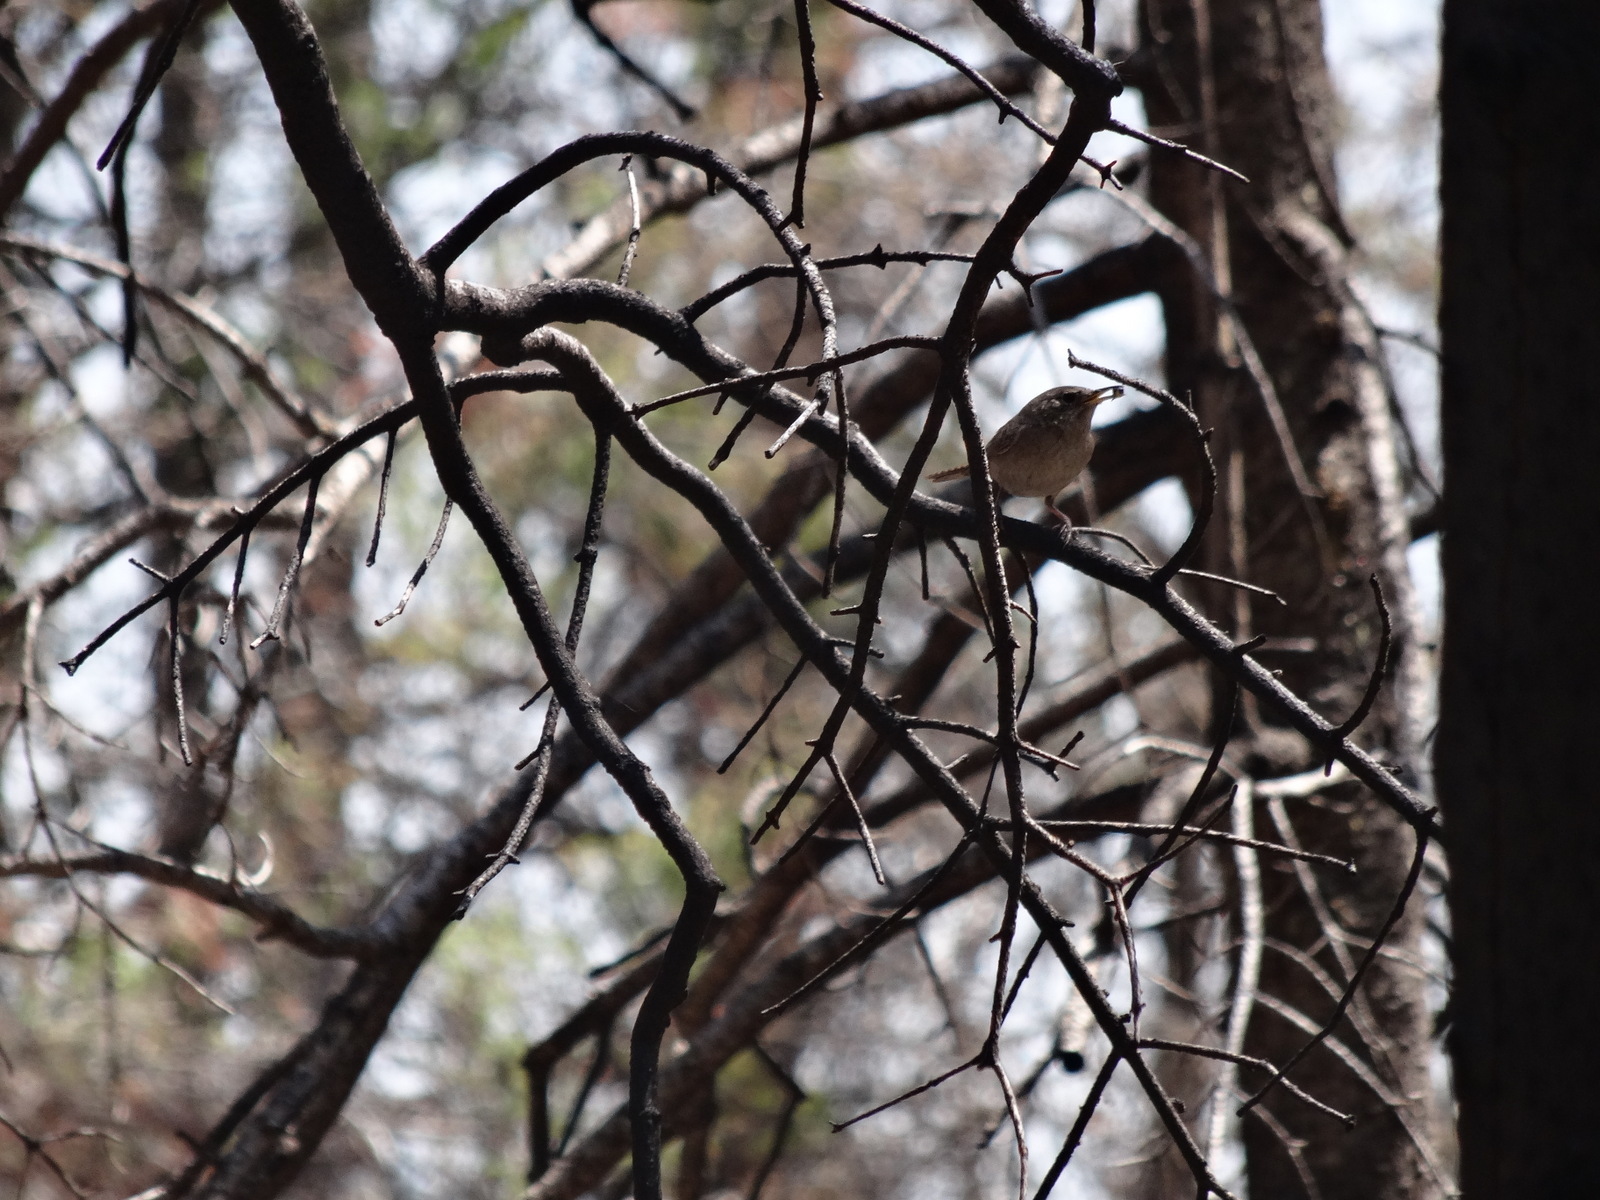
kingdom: Animalia
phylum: Chordata
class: Aves
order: Passeriformes
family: Troglodytidae
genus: Troglodytes
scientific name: Troglodytes aedon
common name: House wren
